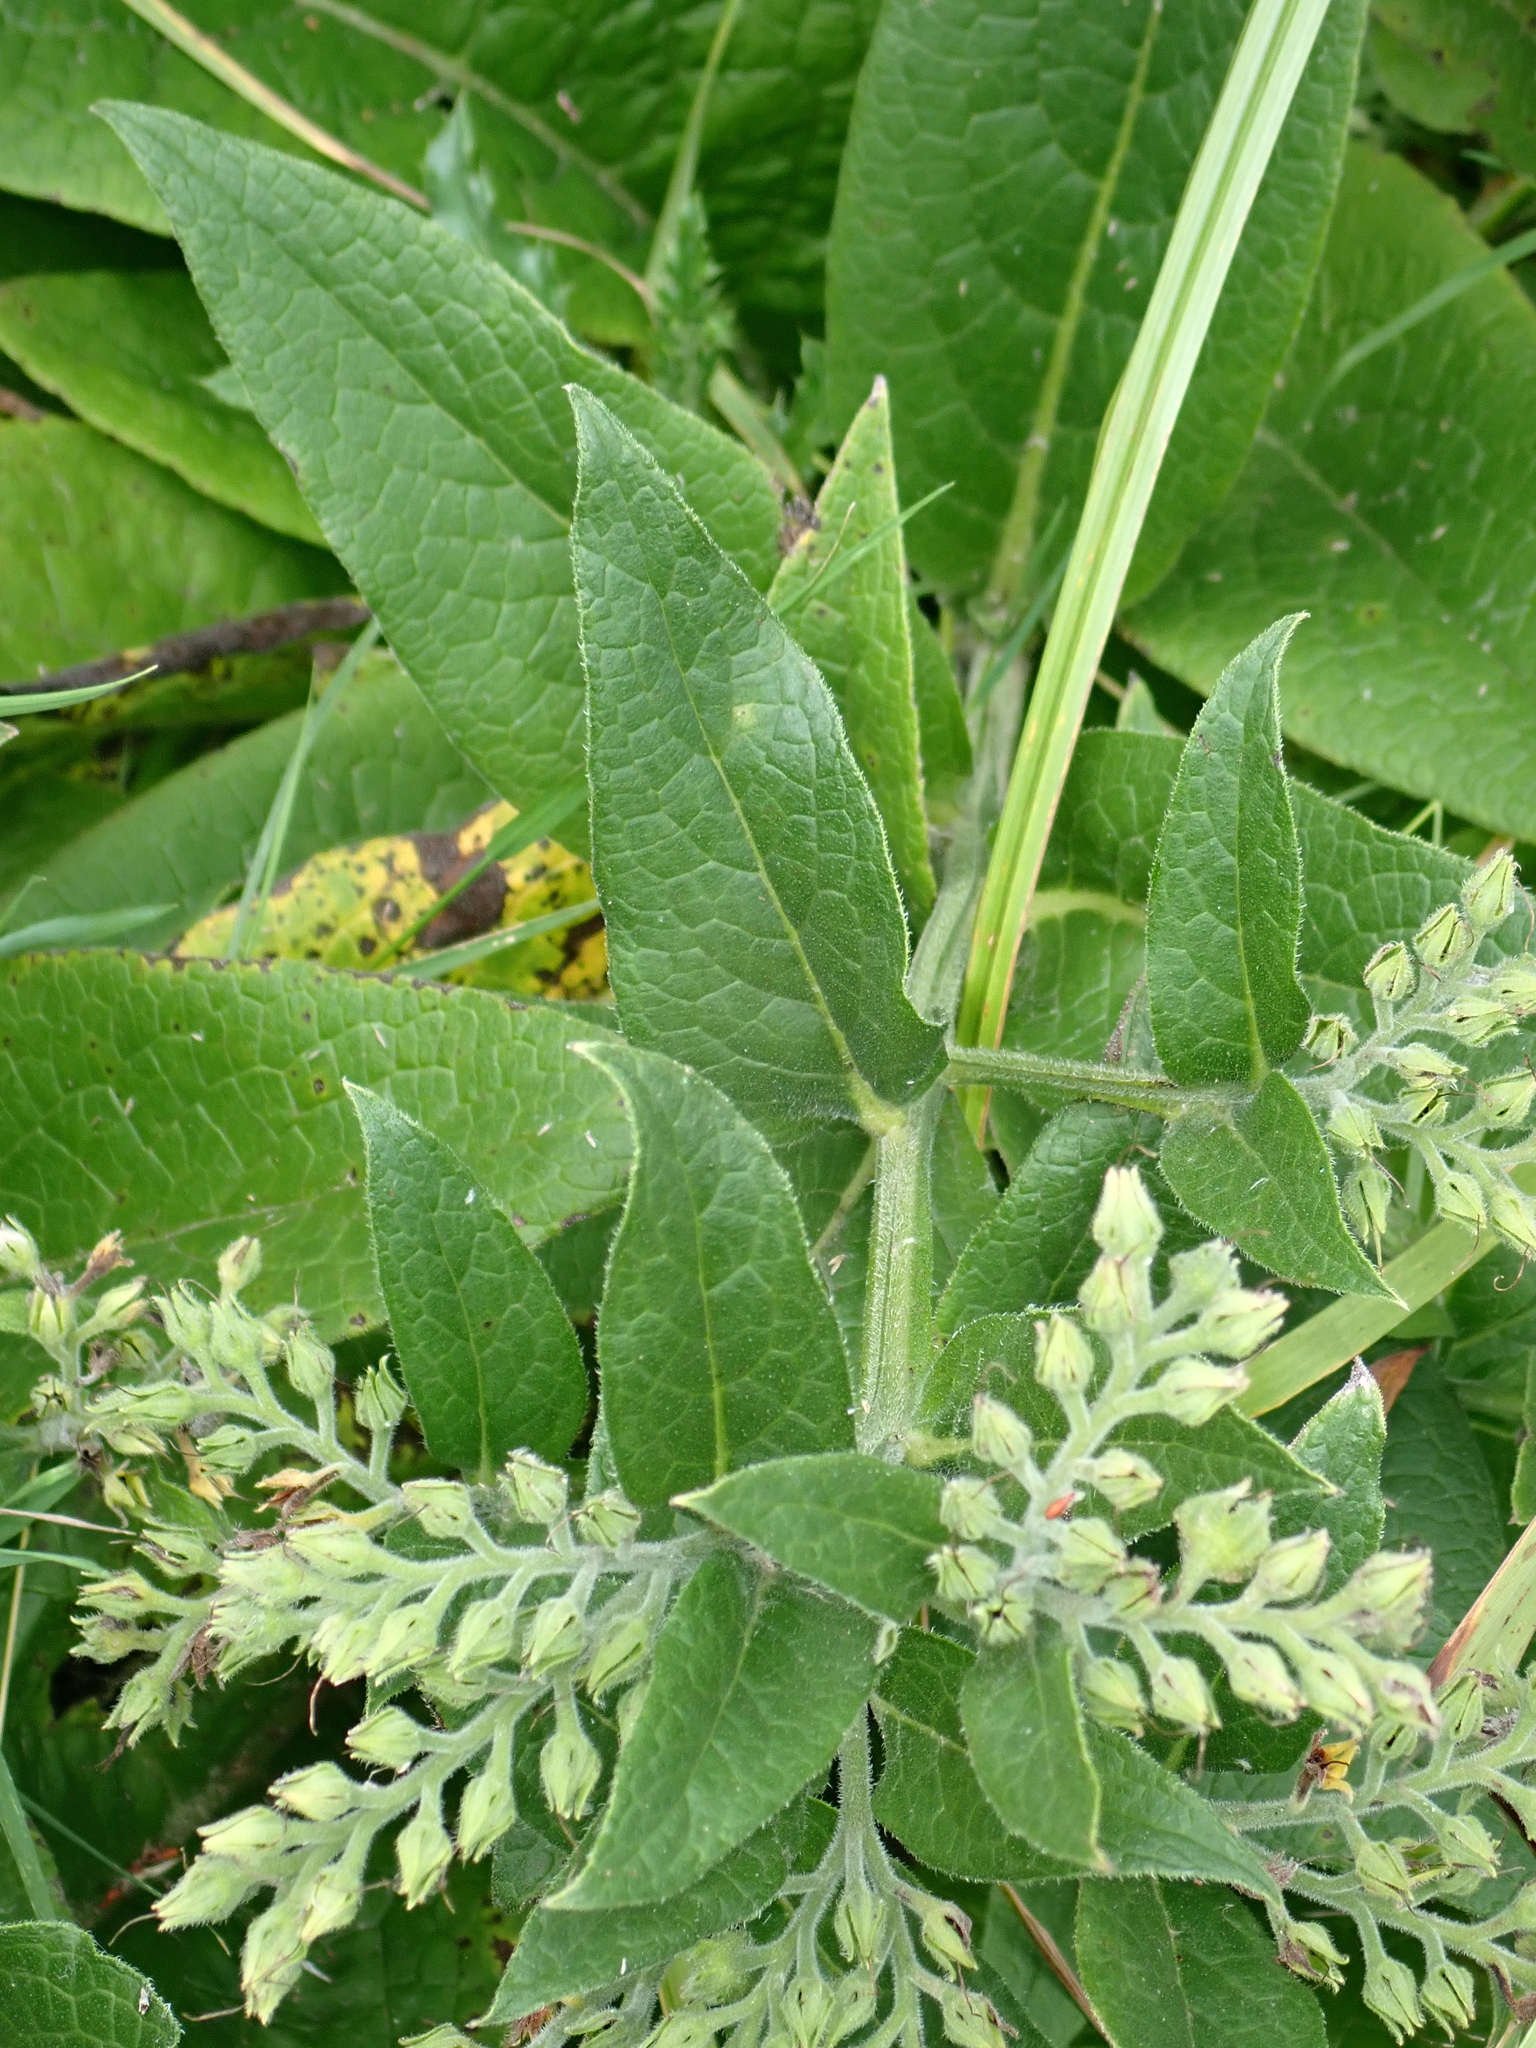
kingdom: Plantae
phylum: Tracheophyta
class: Magnoliopsida
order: Boraginales
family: Boraginaceae
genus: Symphytum
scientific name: Symphytum officinale
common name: Common comfrey
